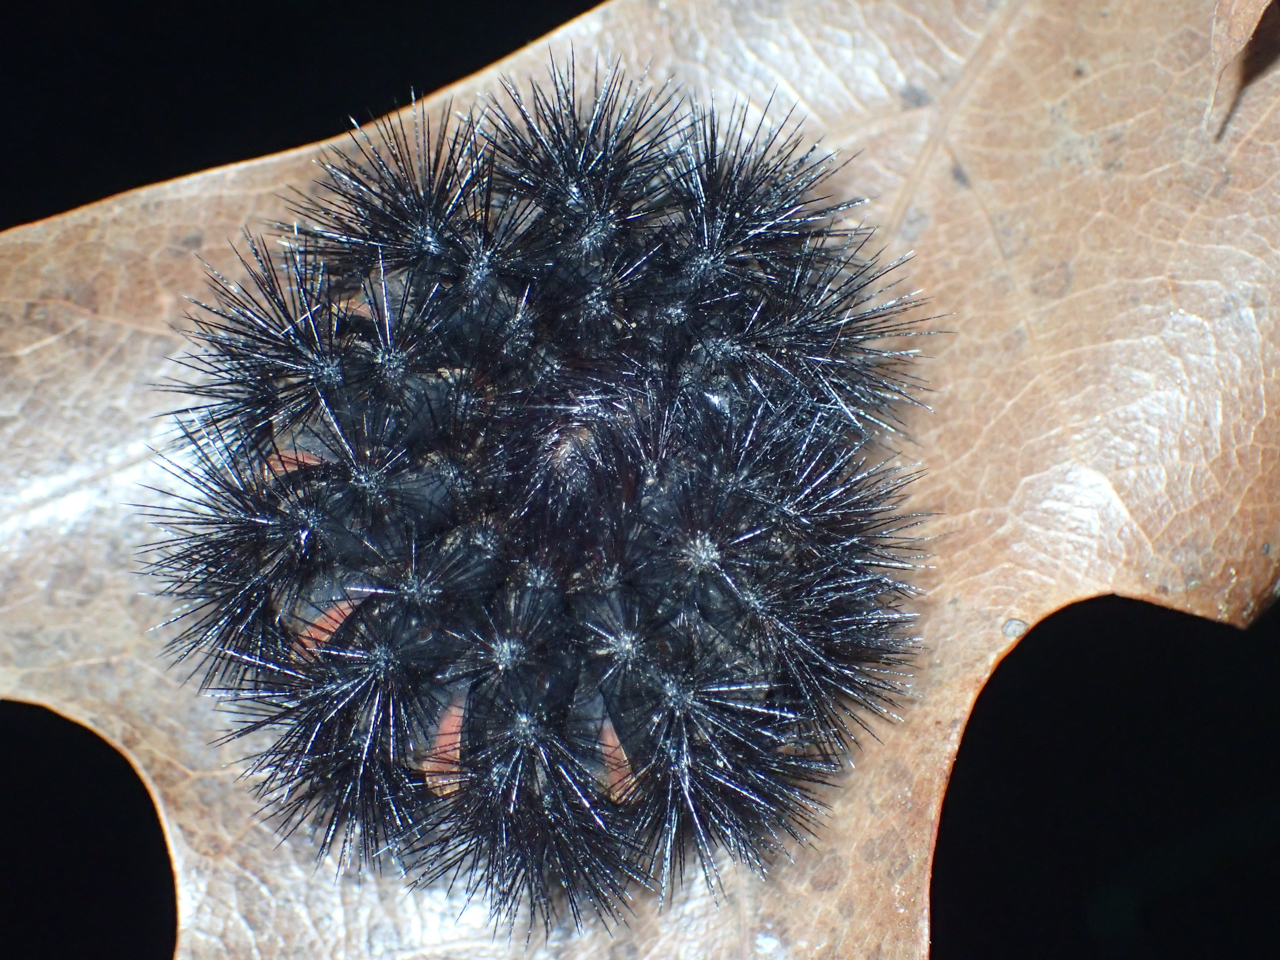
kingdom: Animalia
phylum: Arthropoda
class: Insecta
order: Lepidoptera
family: Erebidae
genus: Hypercompe
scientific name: Hypercompe scribonia
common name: Giant leopard moth
